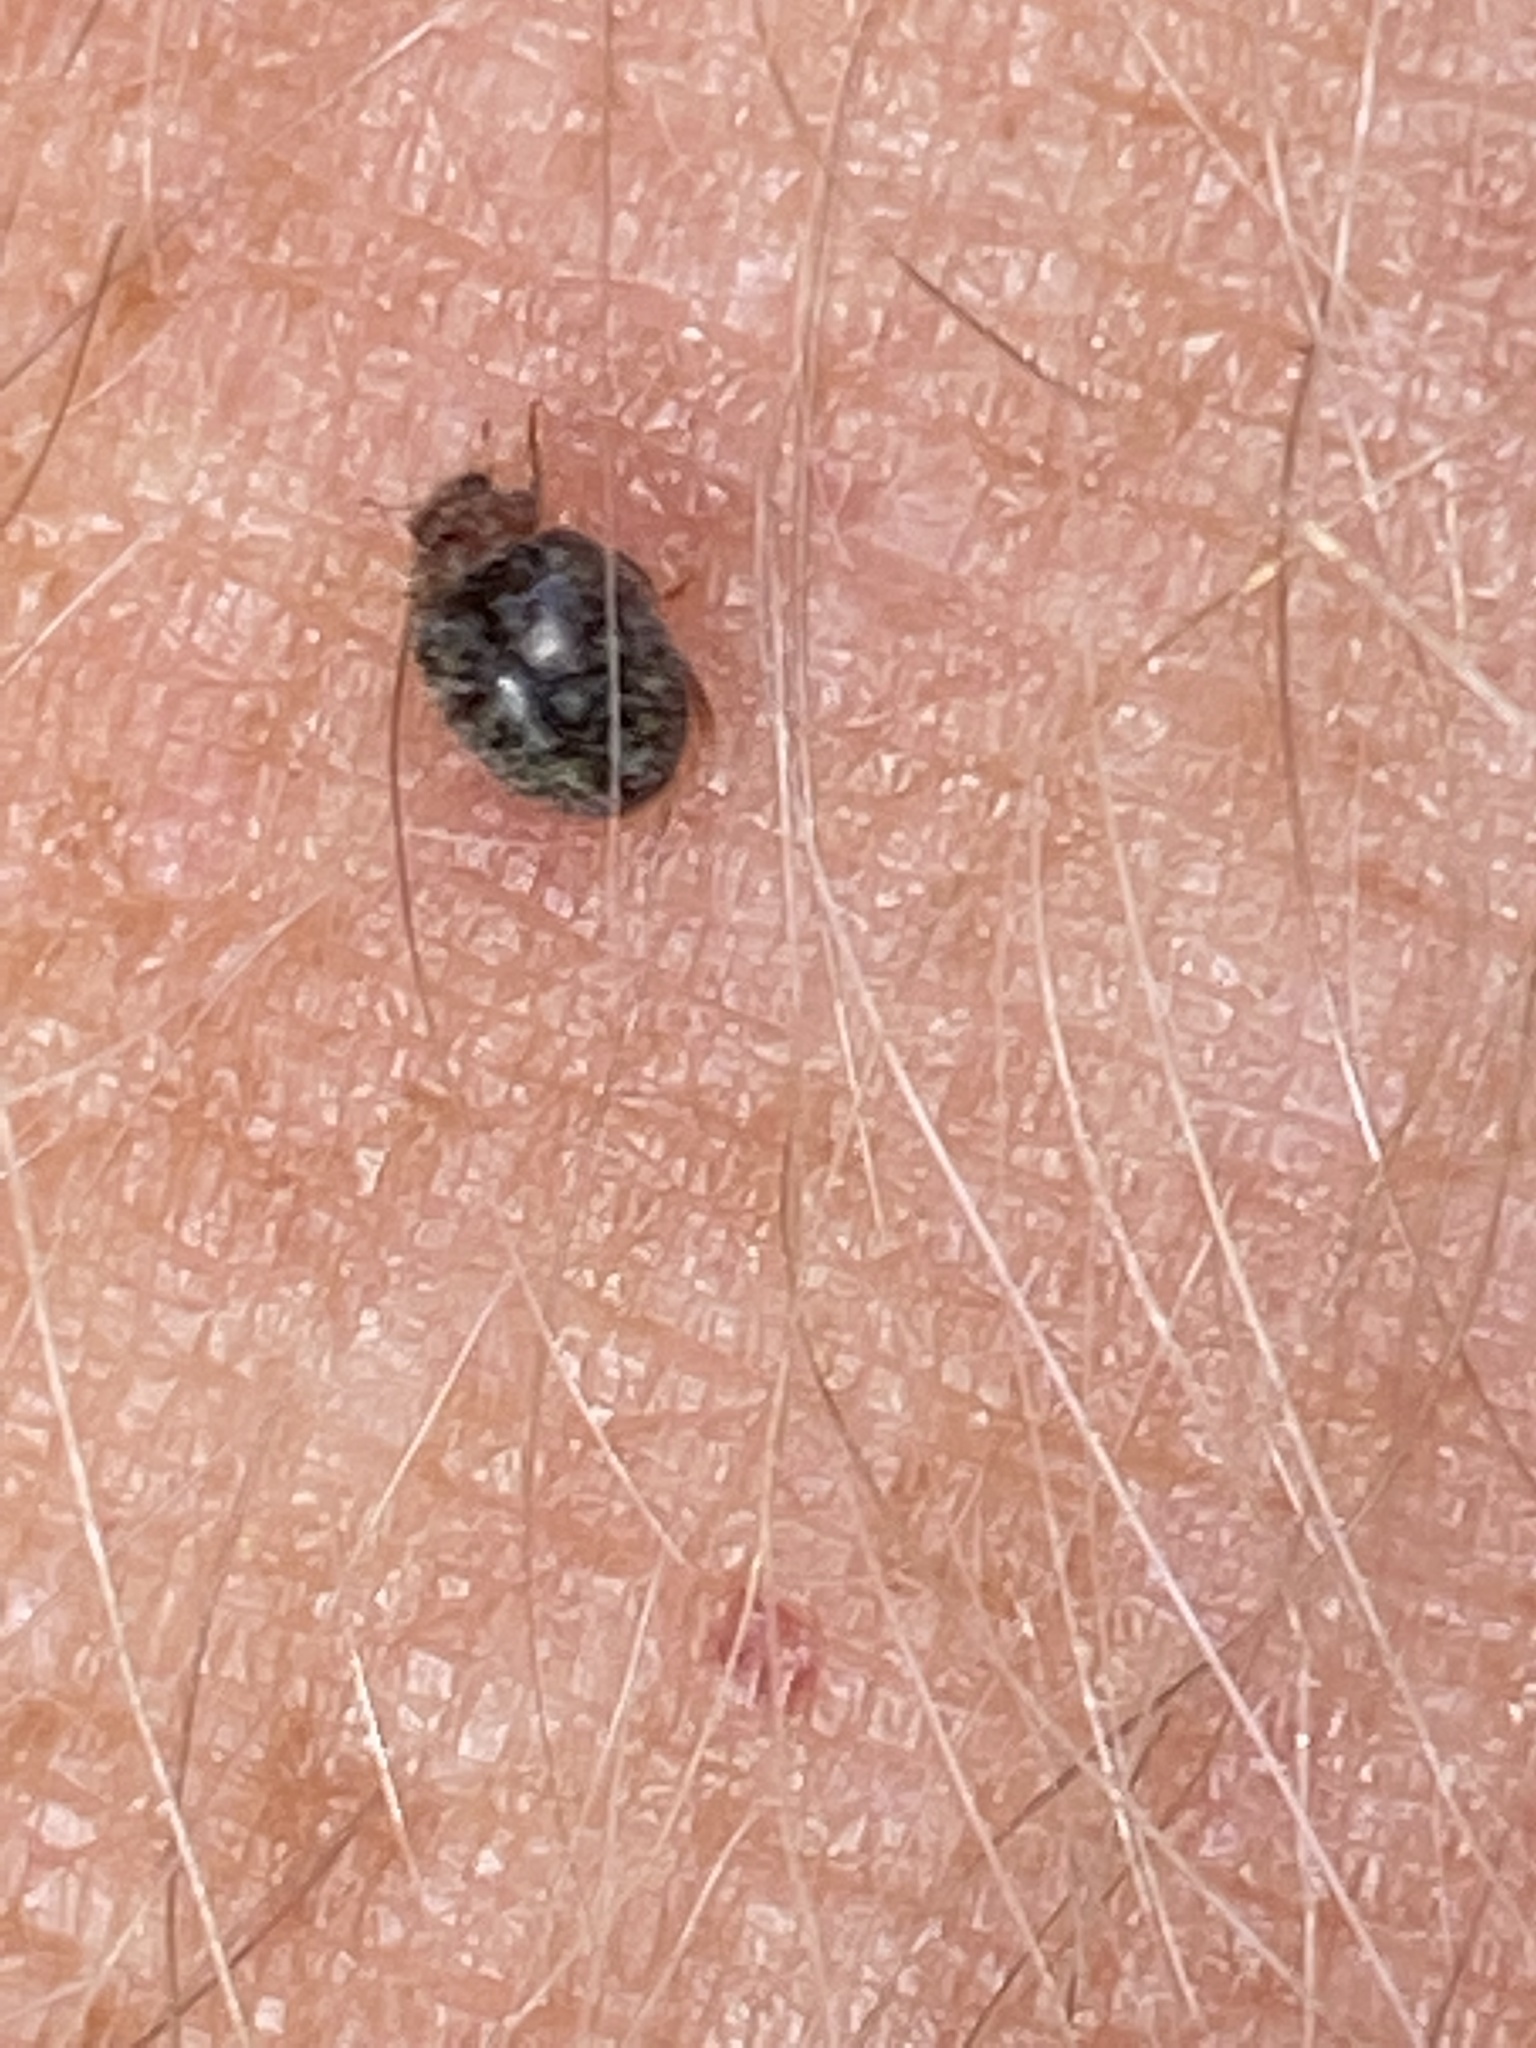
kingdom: Animalia
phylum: Arthropoda
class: Insecta
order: Coleoptera
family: Coccinellidae
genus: Rhyzobius
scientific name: Rhyzobius lophanthae
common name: Scale-eating ladybird beetle
